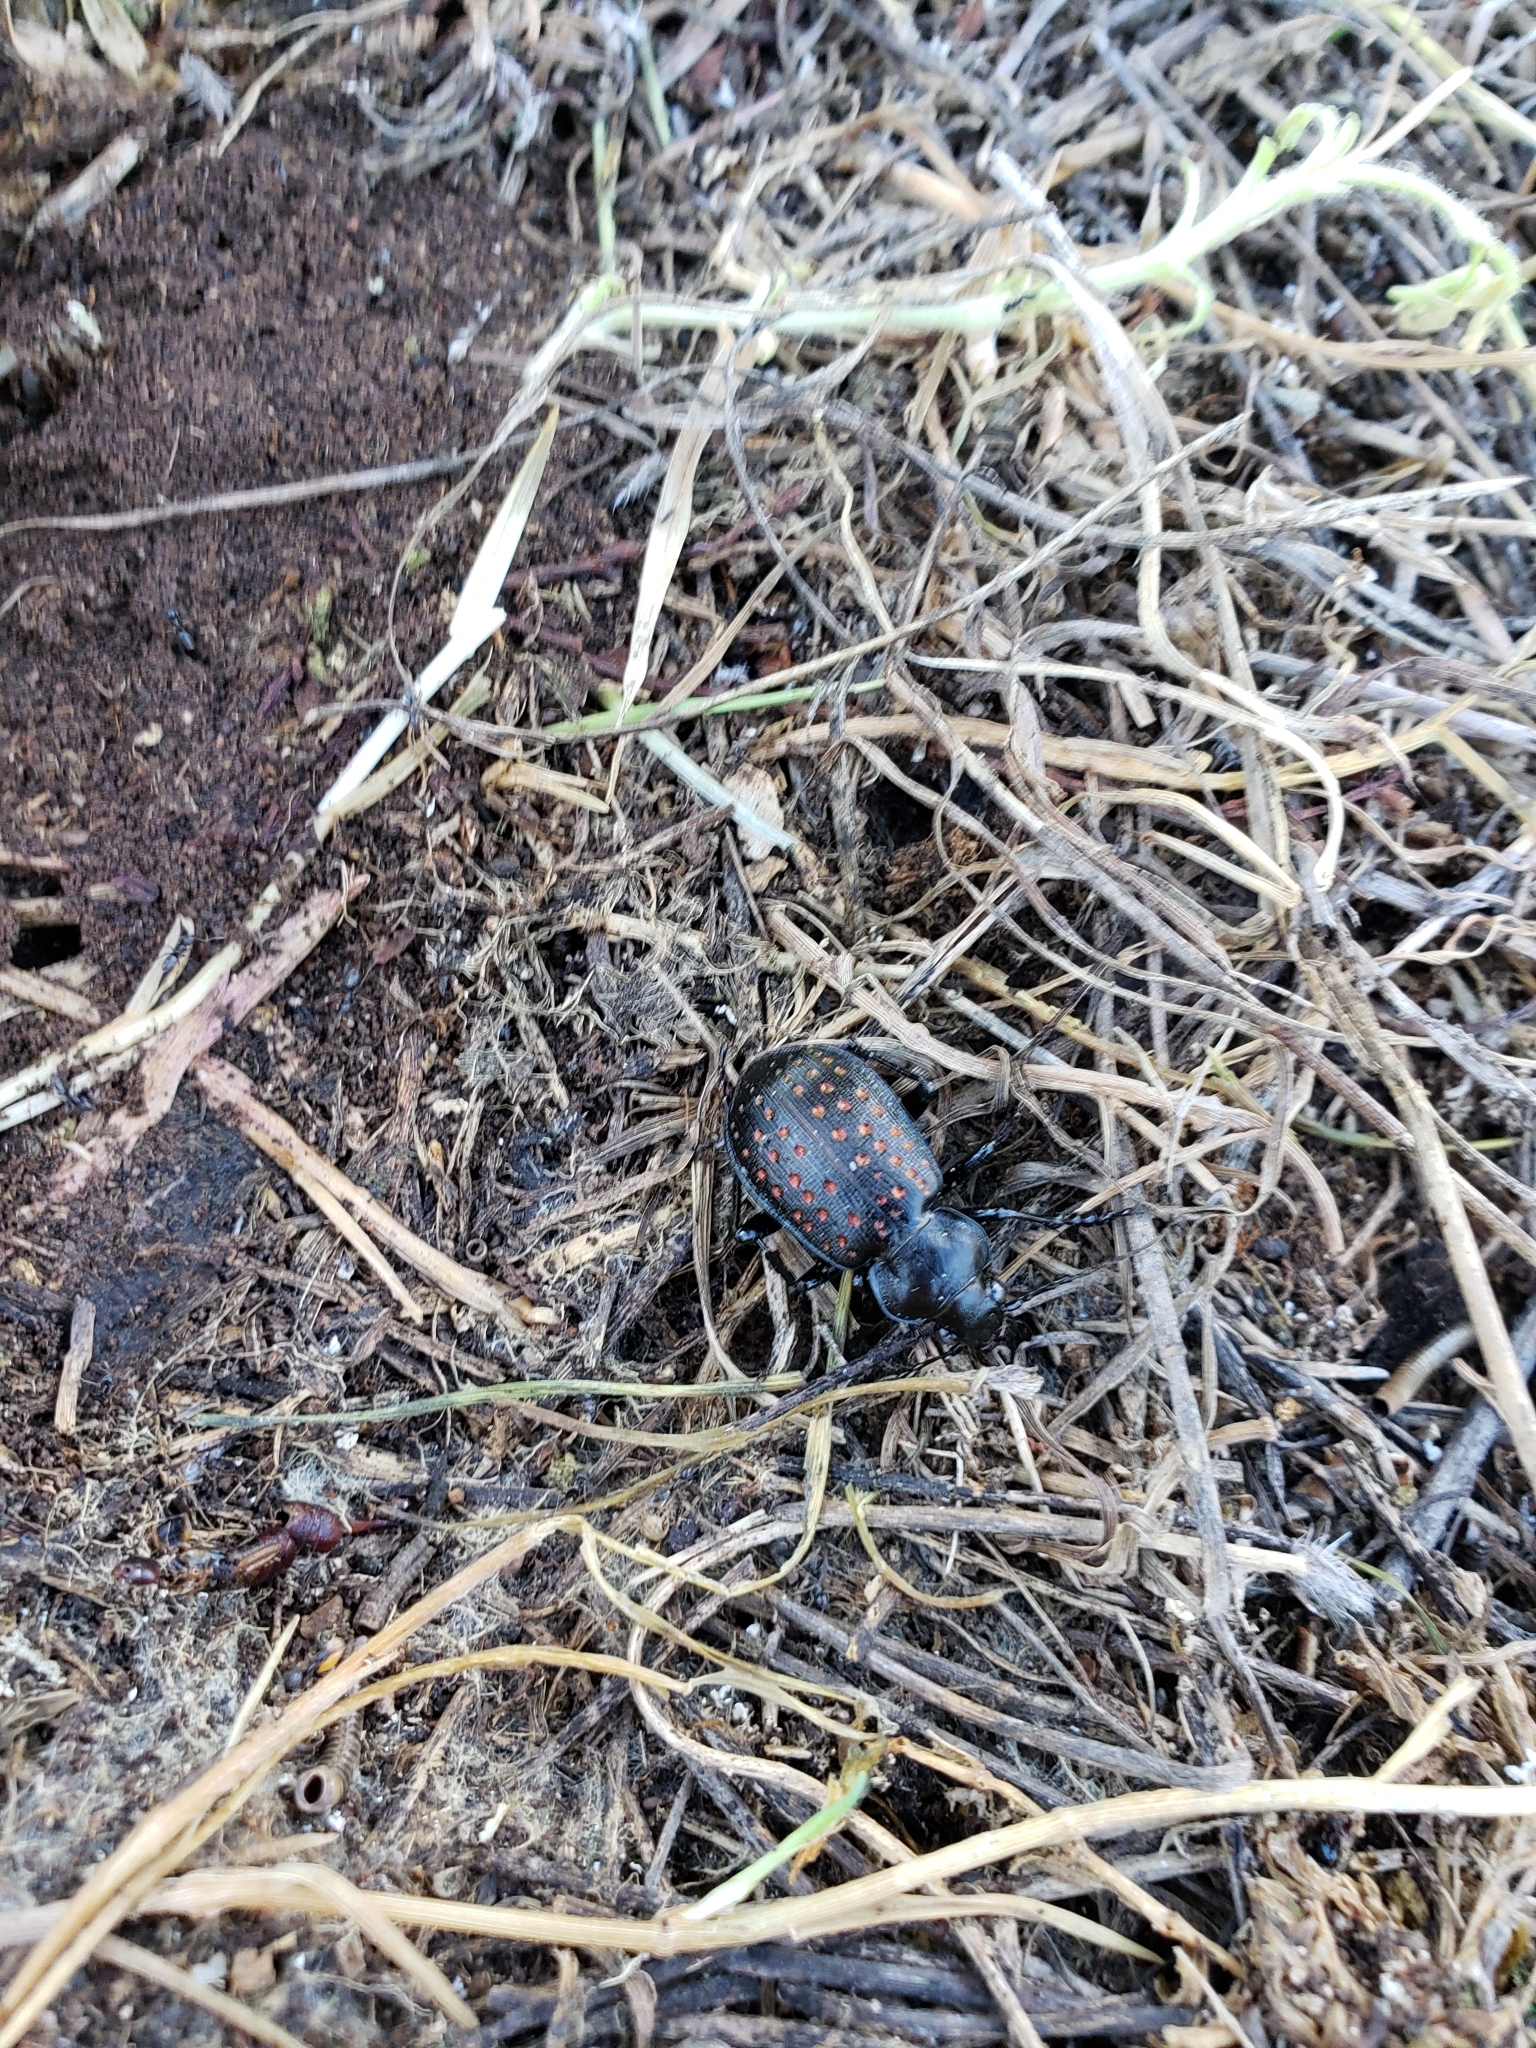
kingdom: Animalia
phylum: Arthropoda
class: Insecta
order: Coleoptera
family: Carabidae
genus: Calosoma
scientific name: Calosoma calidum
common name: Fiery hunter
